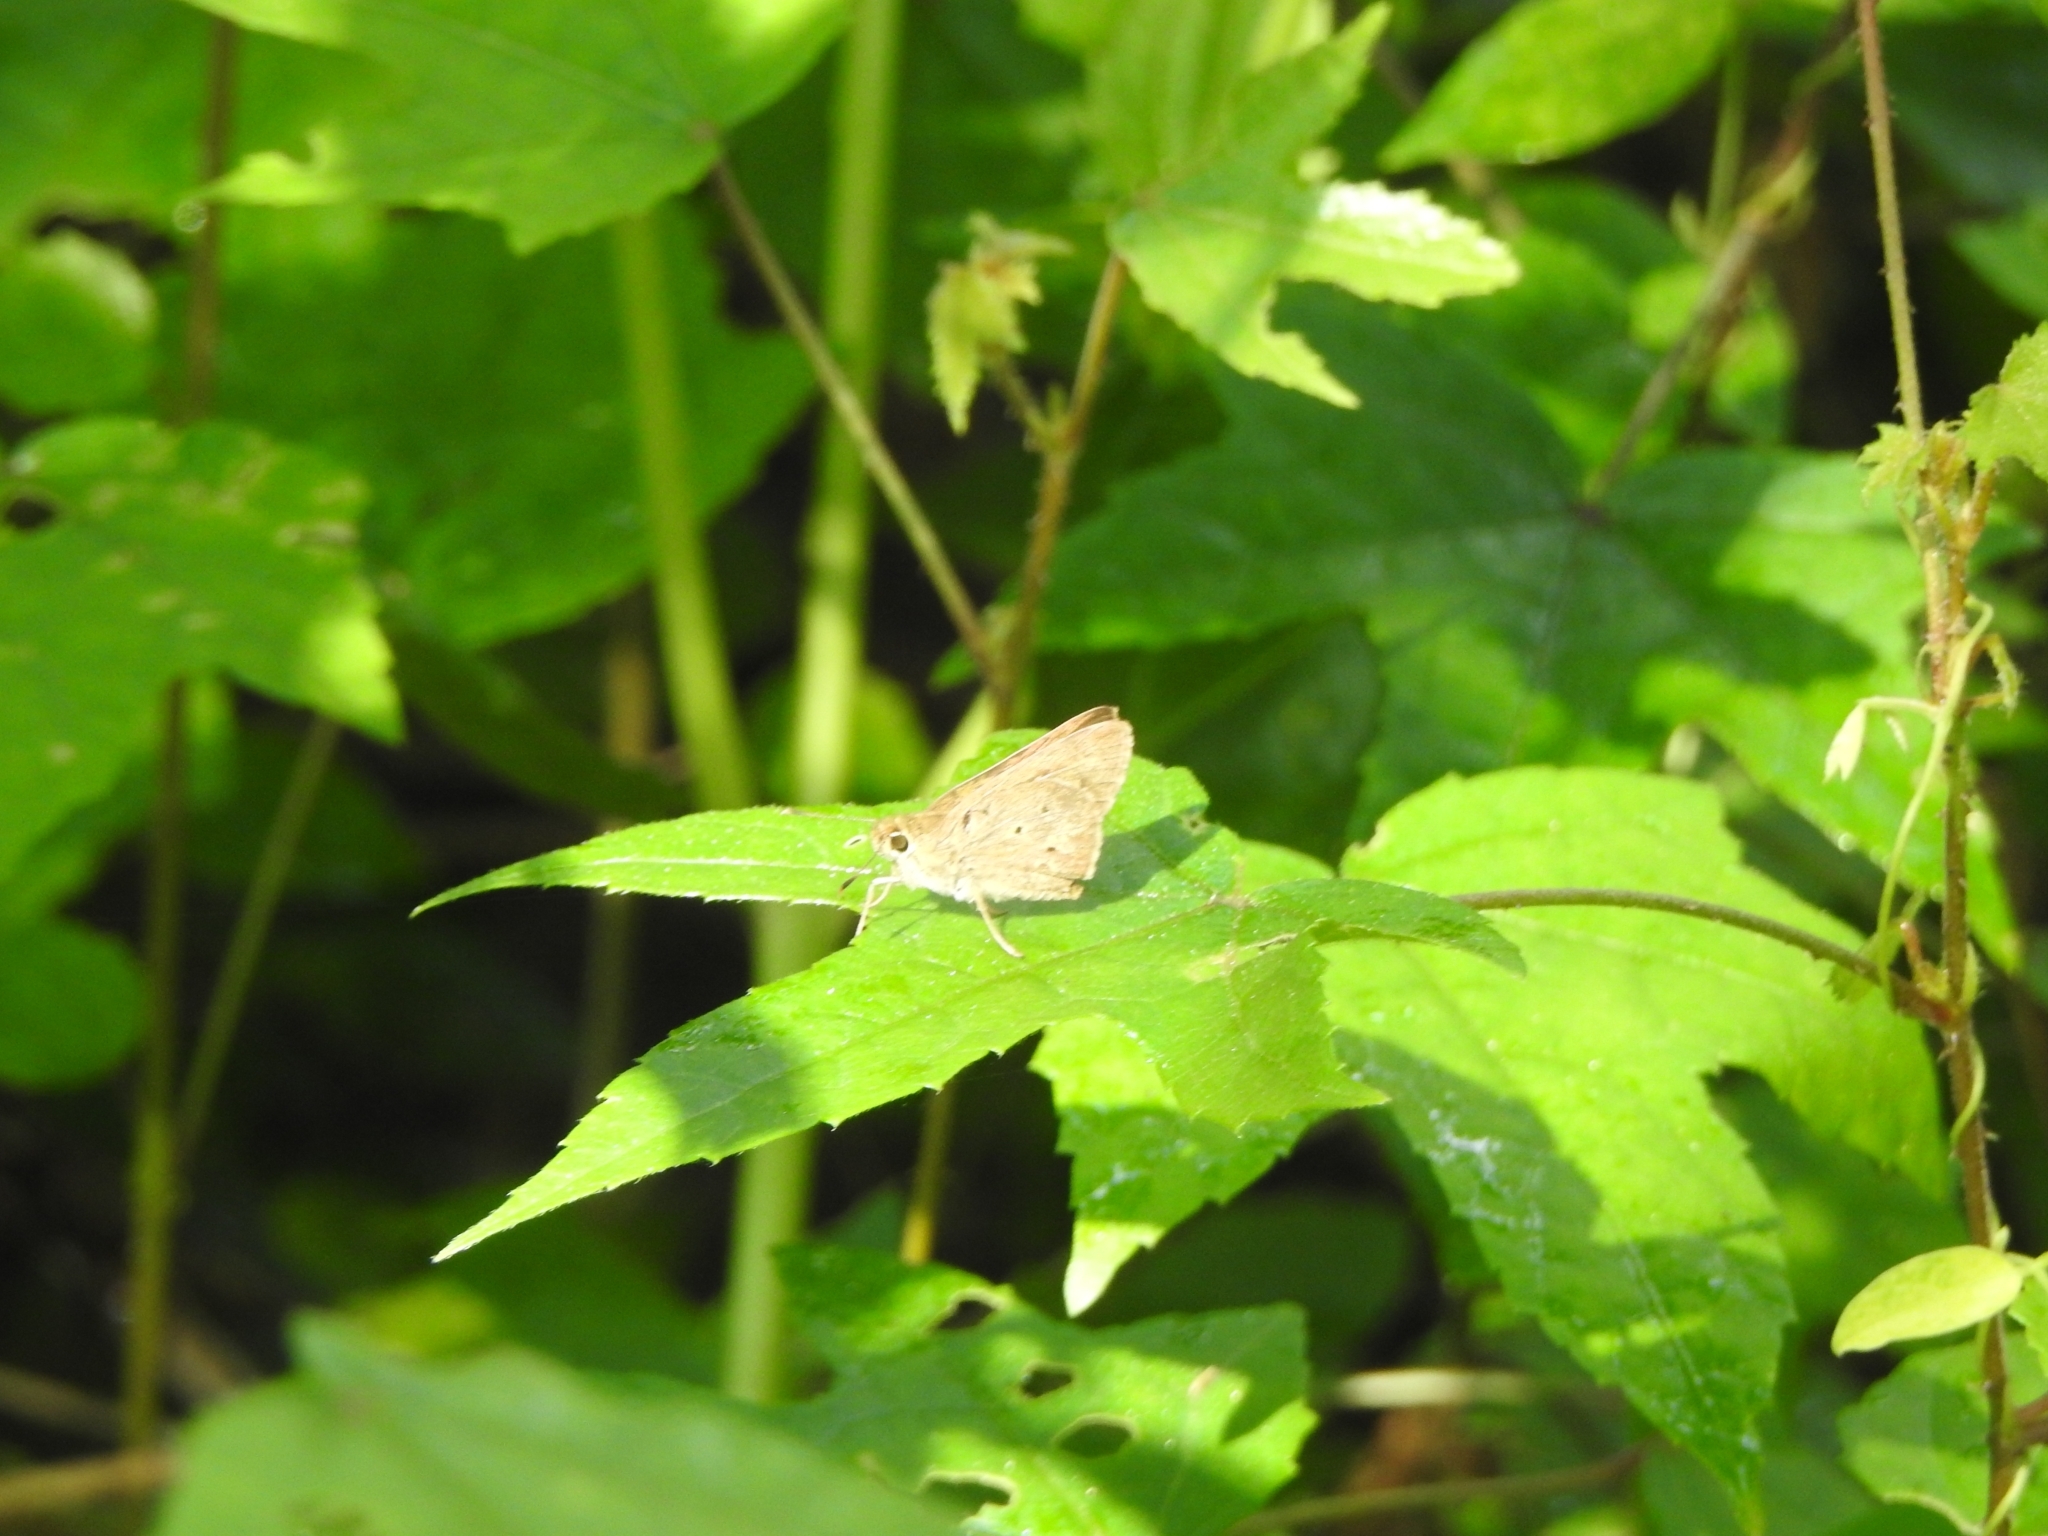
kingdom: Animalia
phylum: Arthropoda
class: Insecta
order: Lepidoptera
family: Hesperiidae
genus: Suastus
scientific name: Suastus gremius
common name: Indian palm bob
